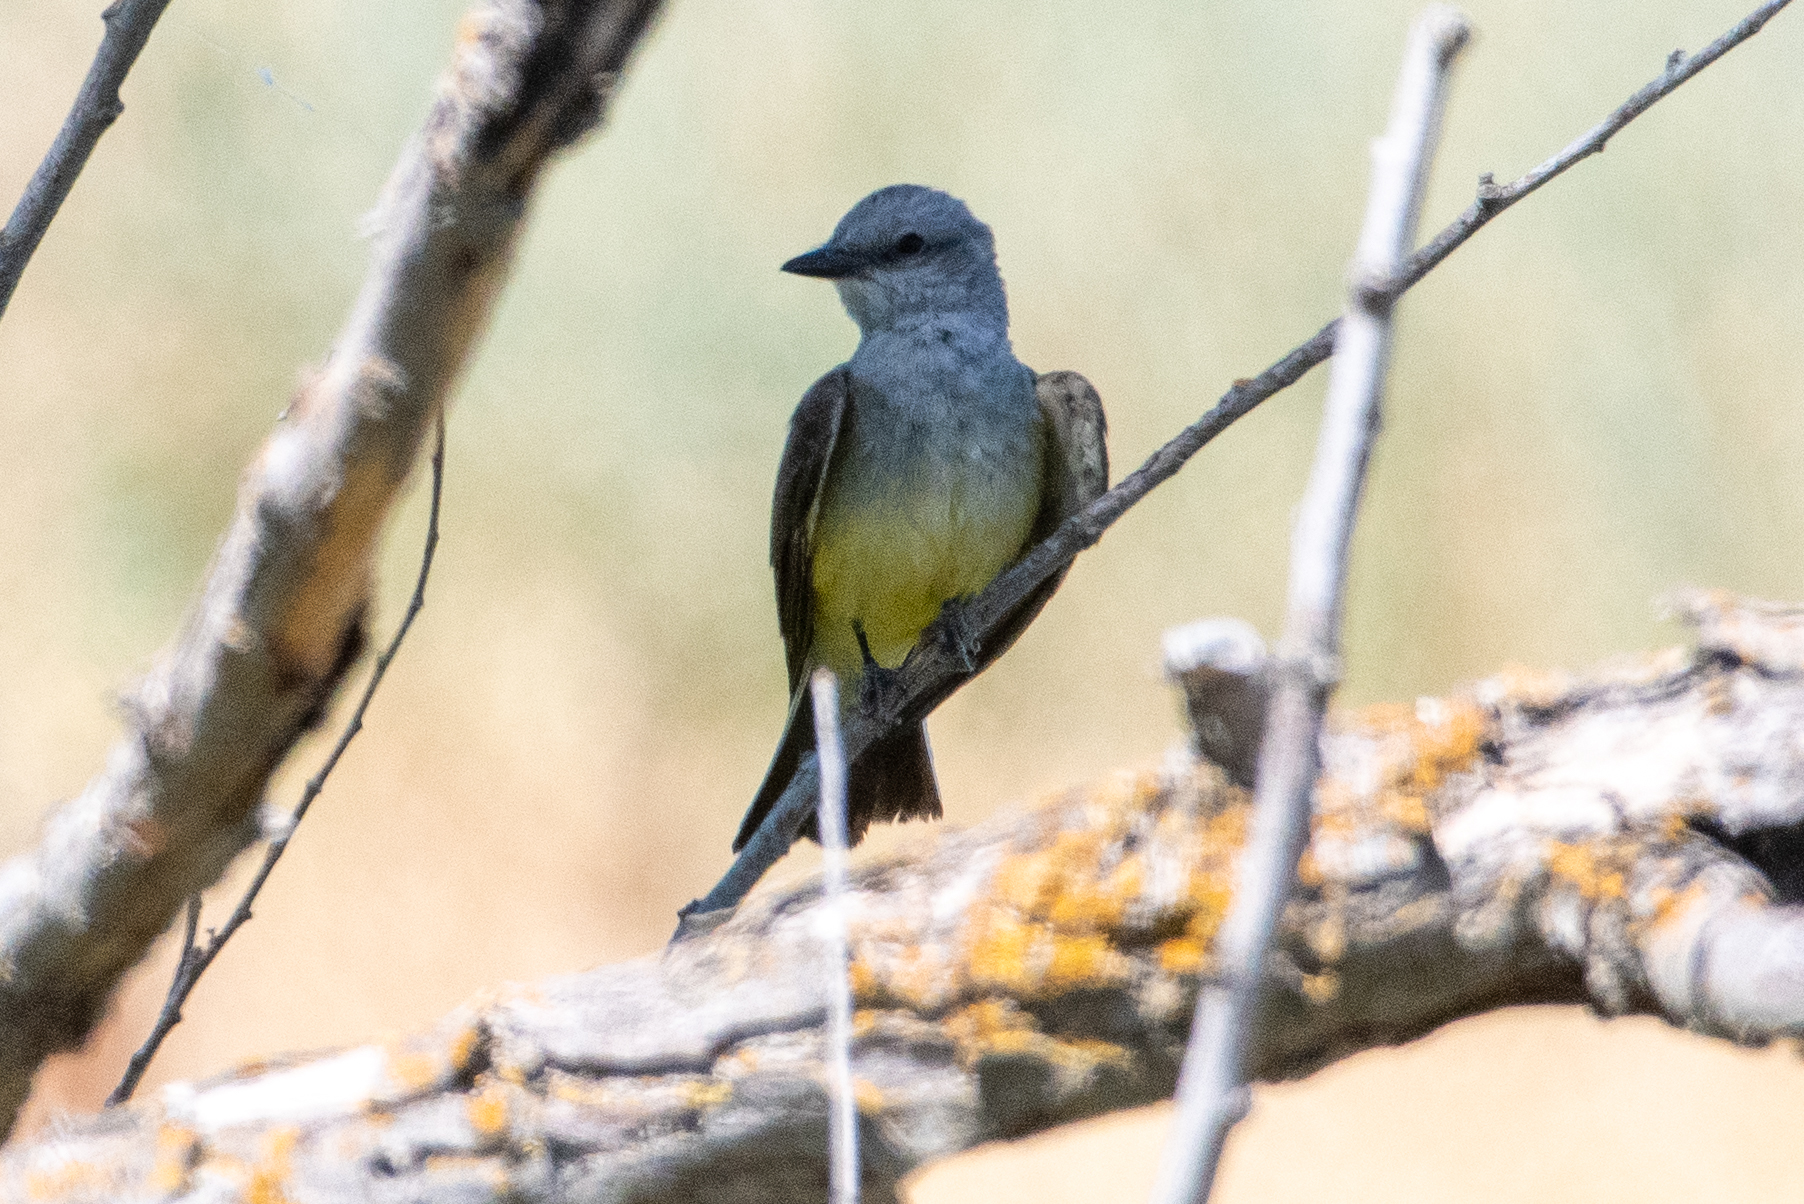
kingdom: Animalia
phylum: Chordata
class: Aves
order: Passeriformes
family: Tyrannidae
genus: Tyrannus
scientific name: Tyrannus verticalis
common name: Western kingbird
